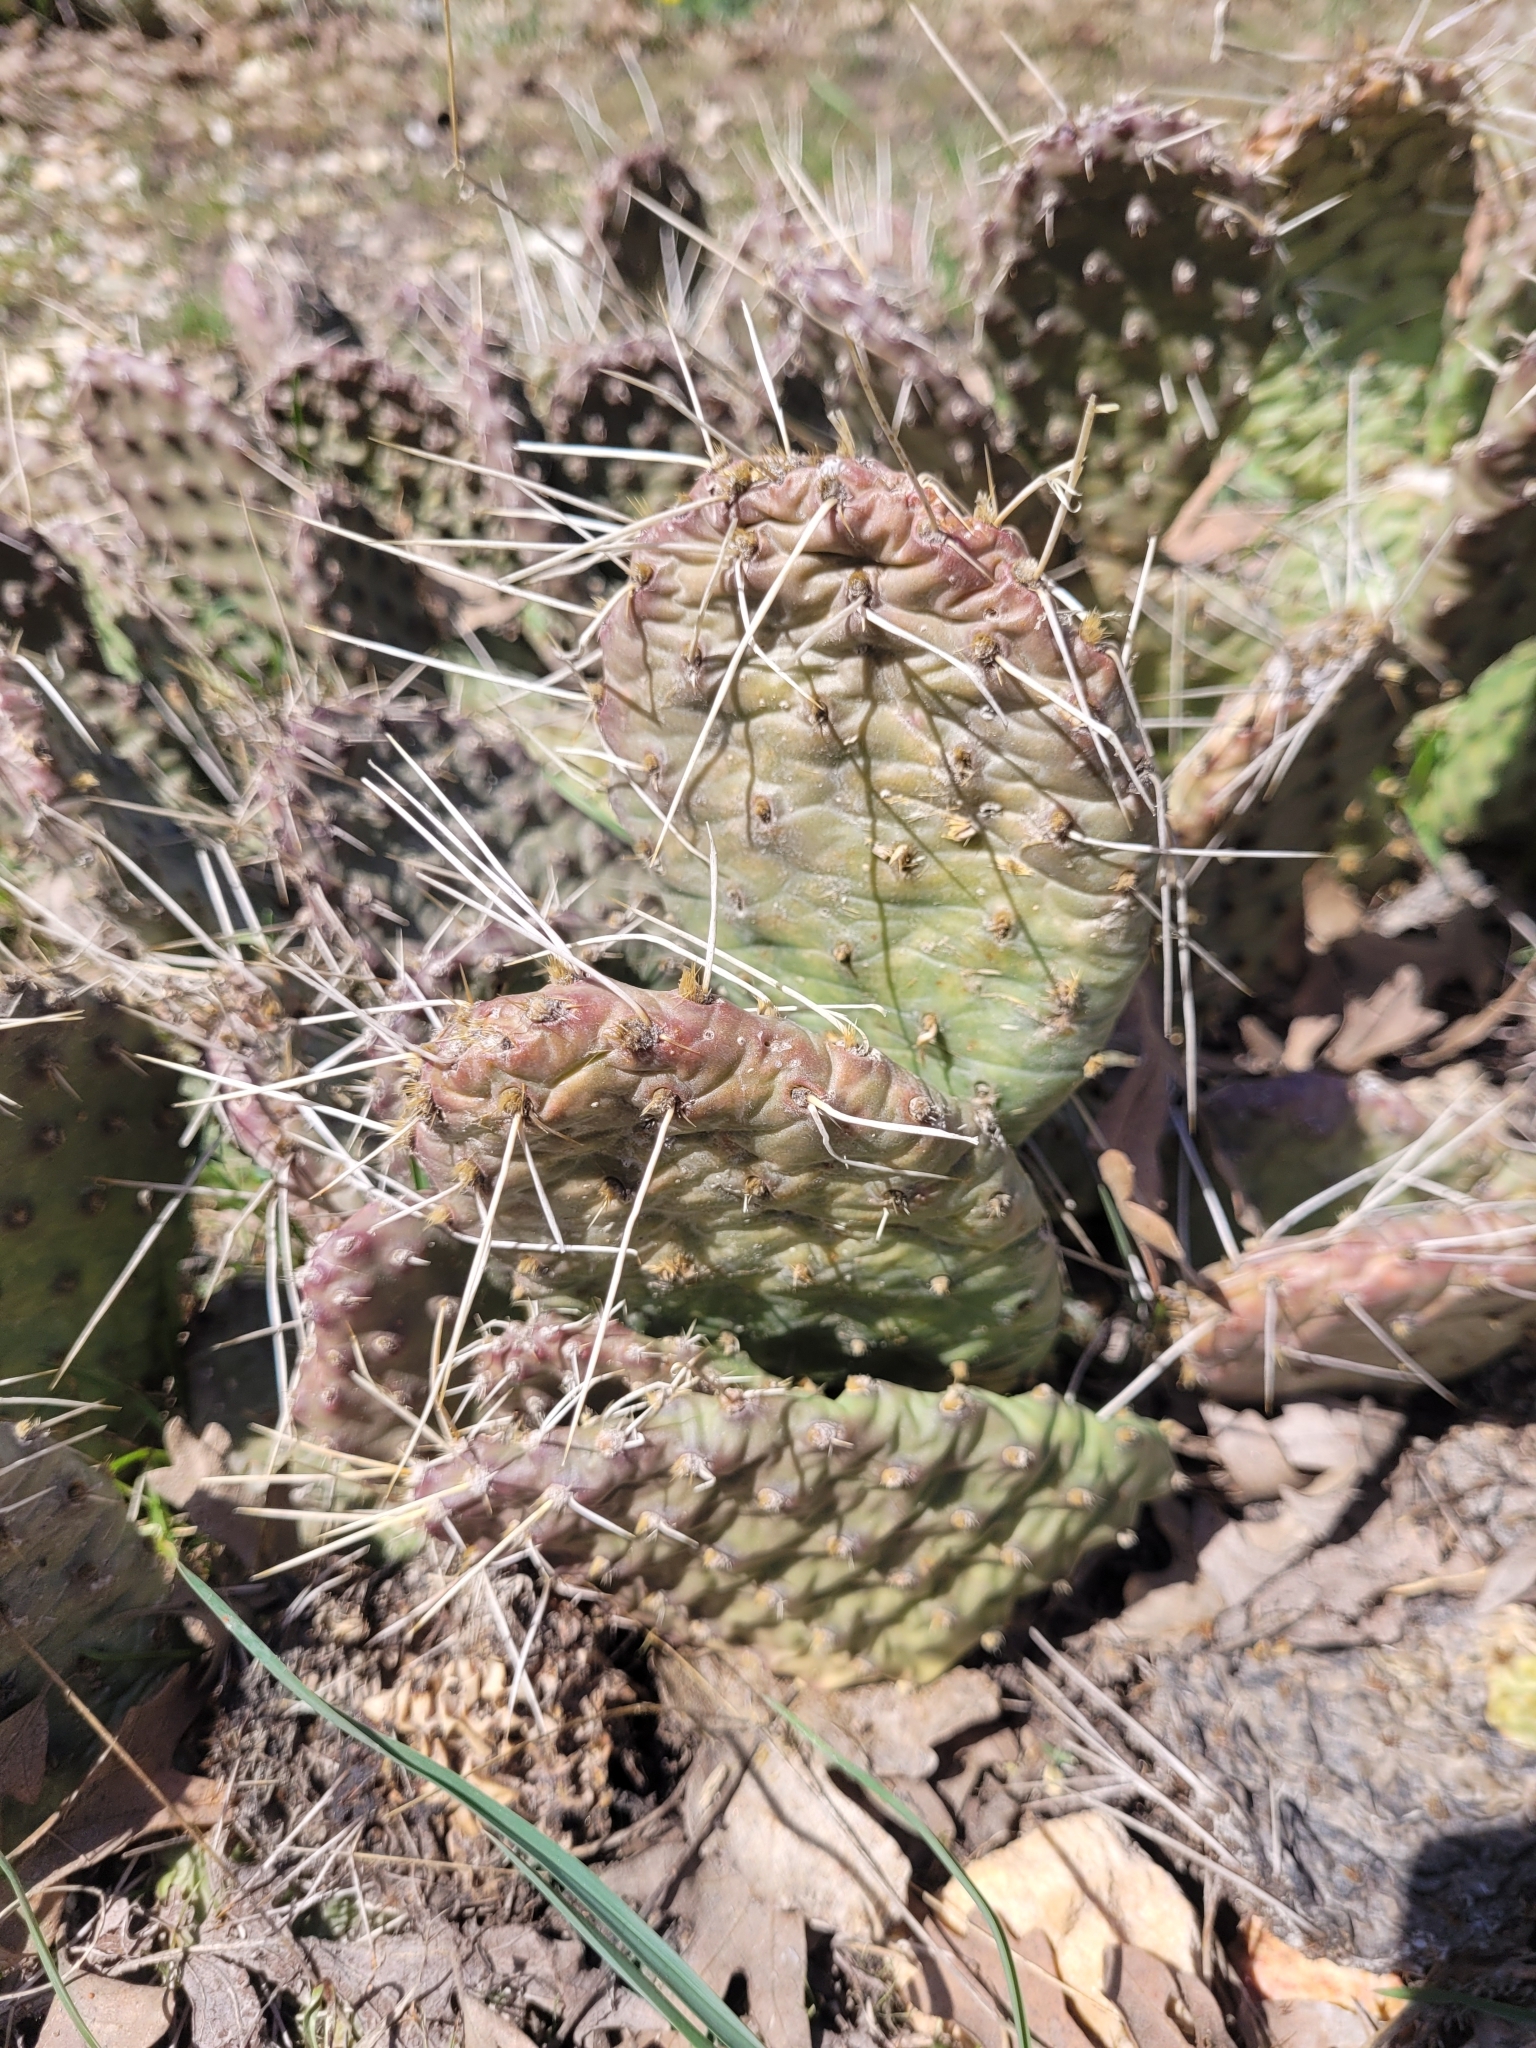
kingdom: Plantae
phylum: Tracheophyta
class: Magnoliopsida
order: Caryophyllales
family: Cactaceae
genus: Opuntia
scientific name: Opuntia polyacantha
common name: Plains prickly-pear
